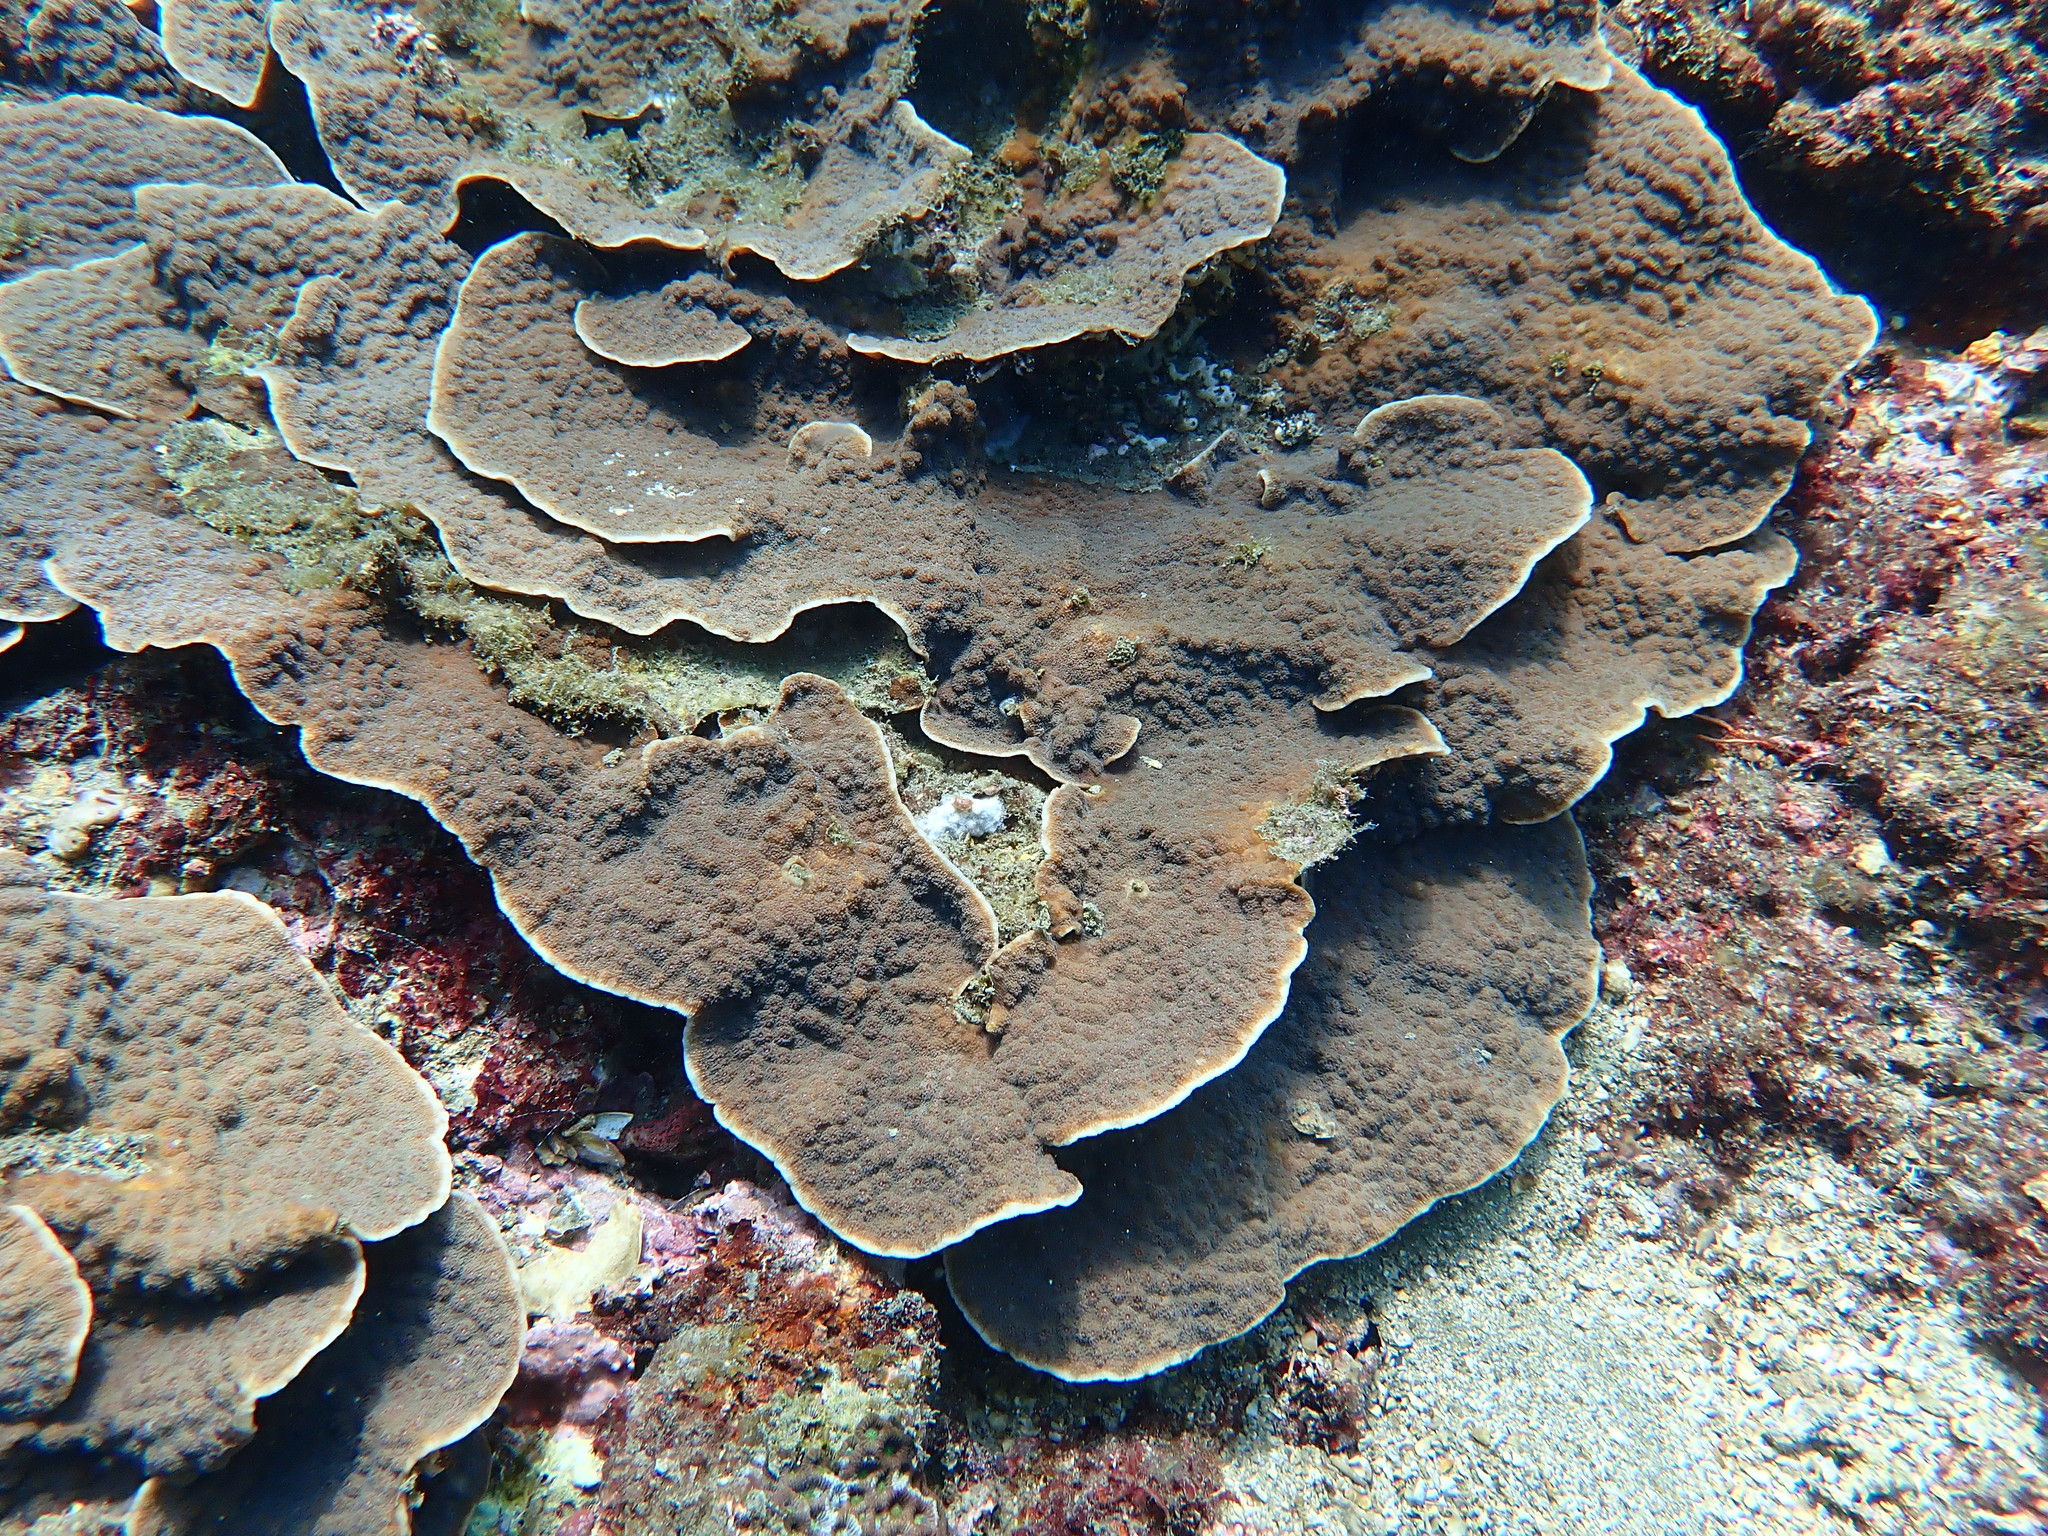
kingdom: Animalia
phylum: Cnidaria
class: Anthozoa
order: Scleractinia
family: Merulinidae
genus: Echinopora
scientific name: Echinopora gemmacea
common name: Hedgehog coral
